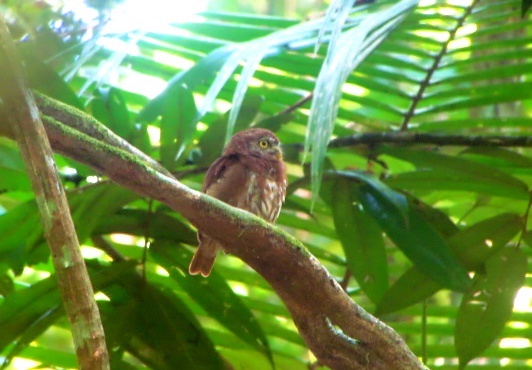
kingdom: Animalia
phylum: Chordata
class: Aves
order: Strigiformes
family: Strigidae
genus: Glaucidium
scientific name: Glaucidium brasilianum
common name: Ferruginous pygmy-owl
